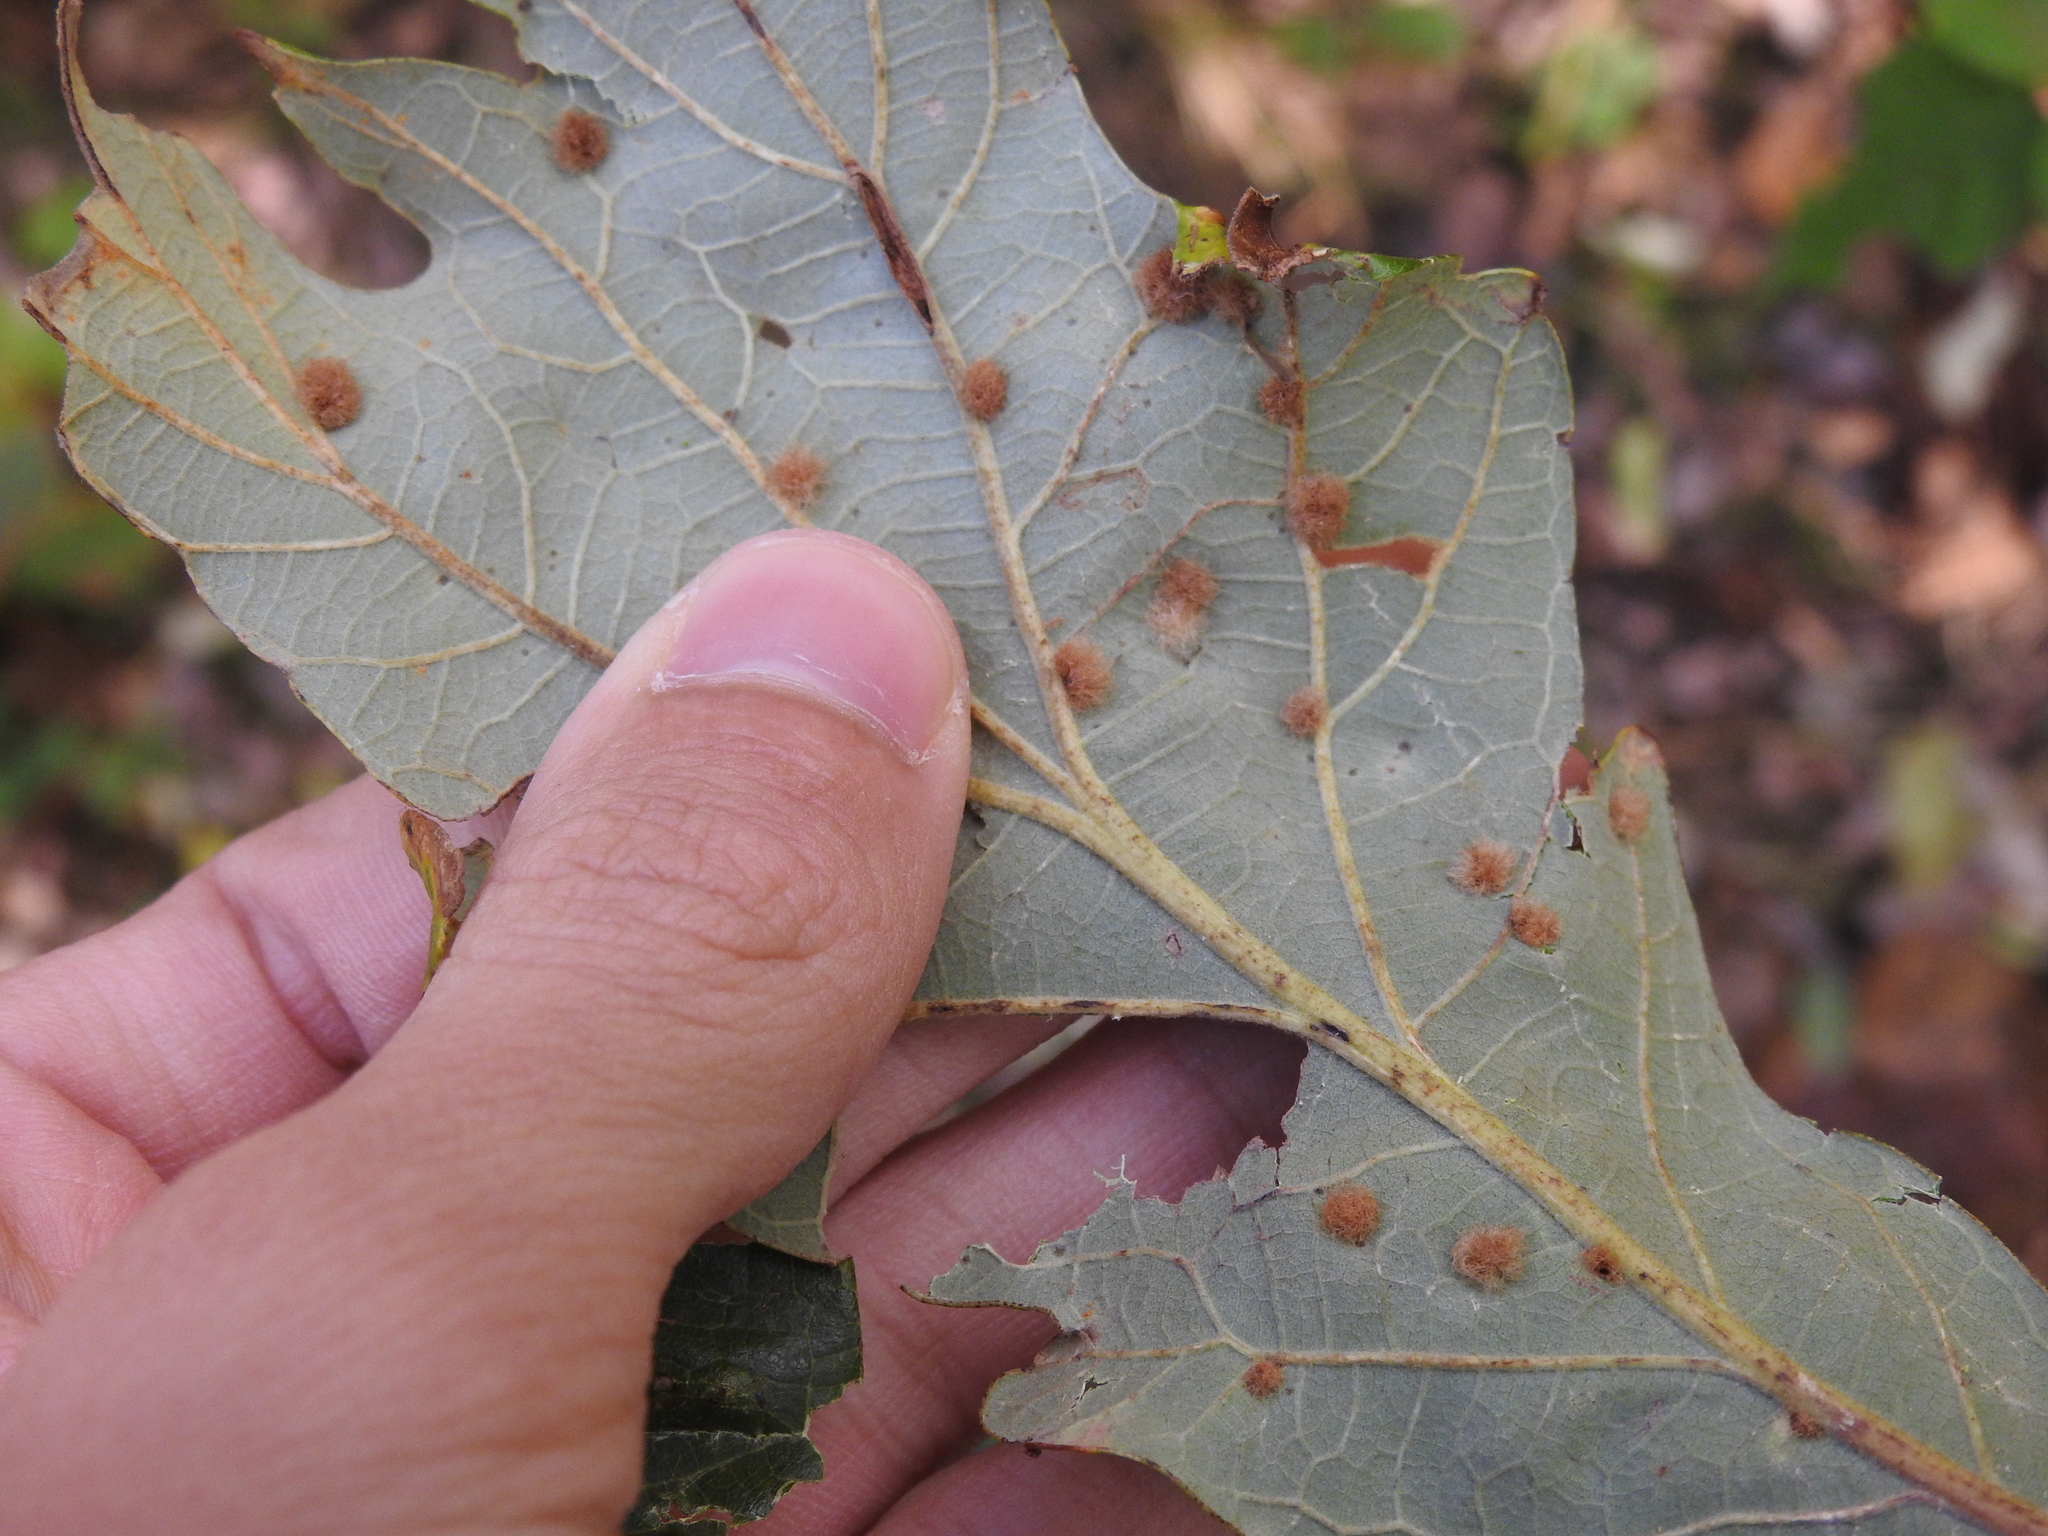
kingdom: Animalia
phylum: Arthropoda
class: Insecta
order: Hymenoptera
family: Cynipidae
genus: Neuroterus
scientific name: Neuroterus quercusverrucarum
